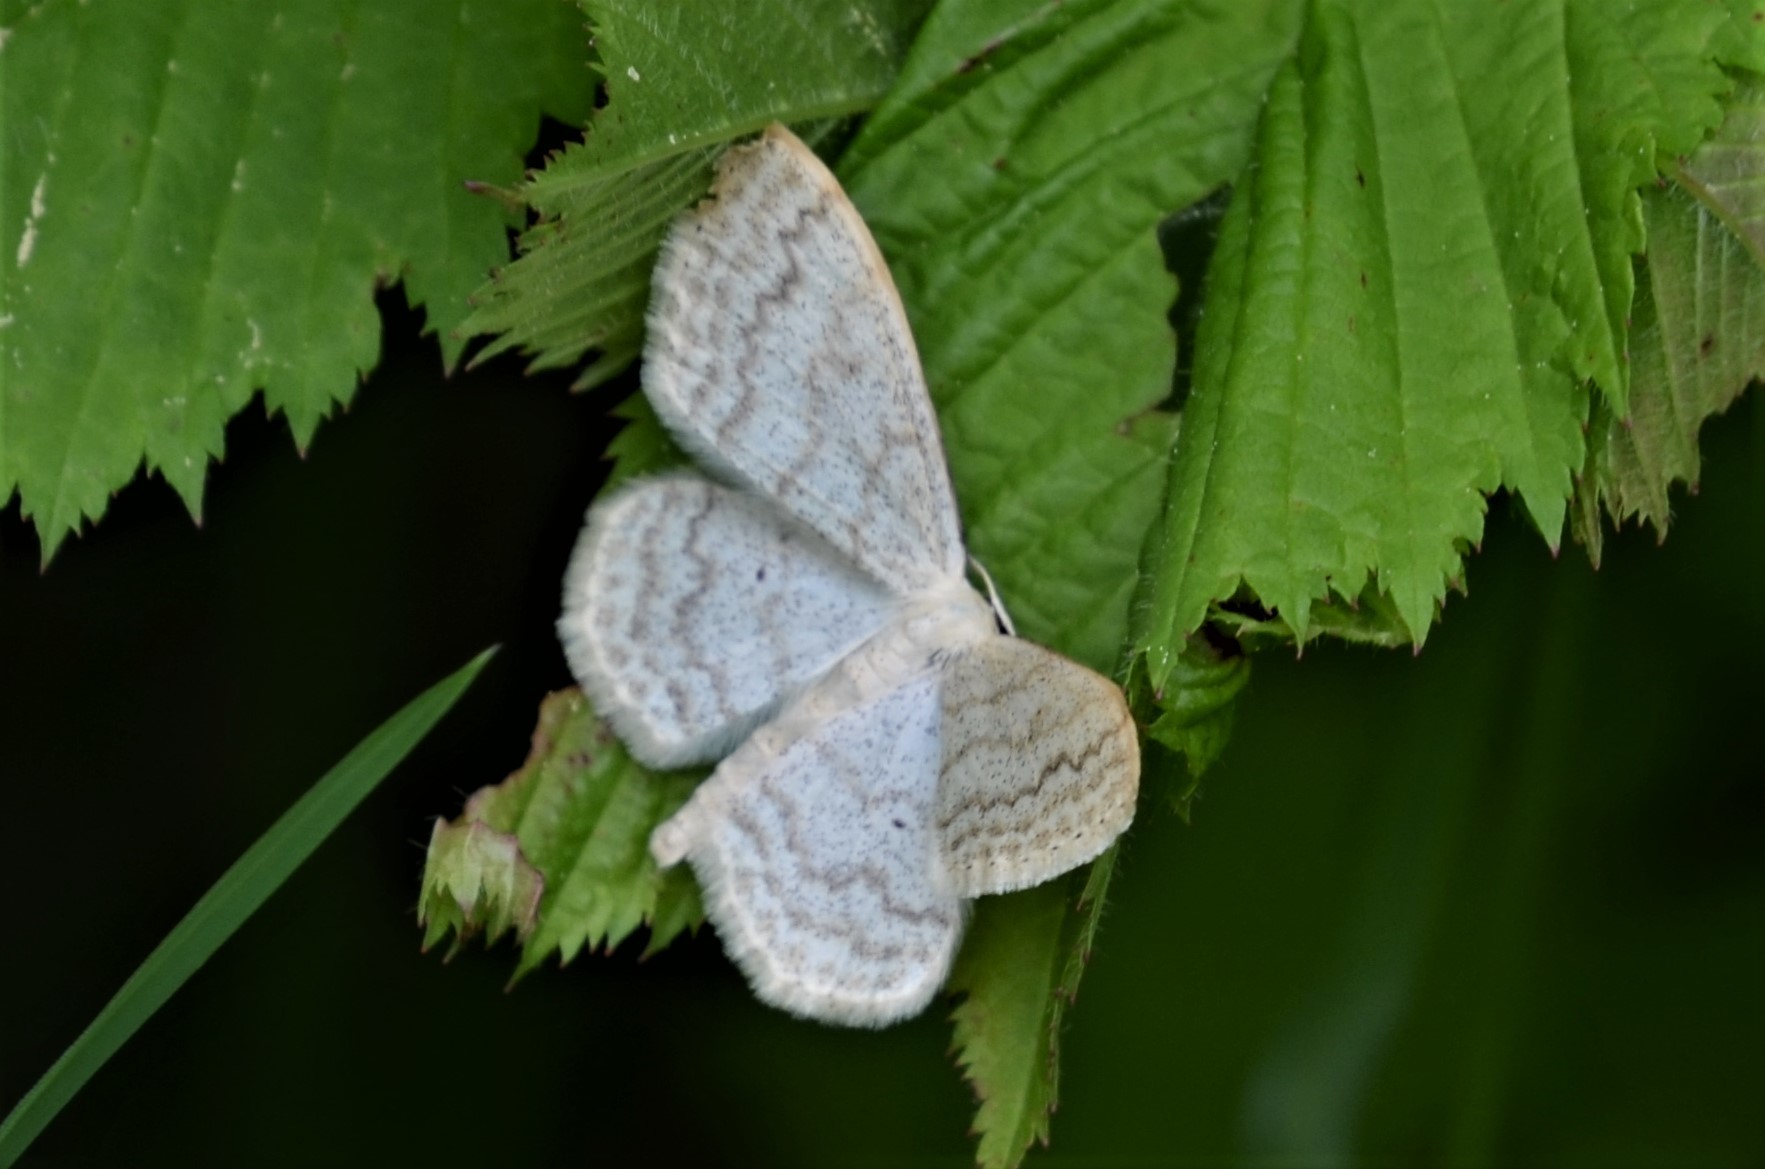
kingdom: Animalia
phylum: Arthropoda
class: Insecta
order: Lepidoptera
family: Geometridae
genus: Scopula
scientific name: Scopula floslactata
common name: Cream wave
